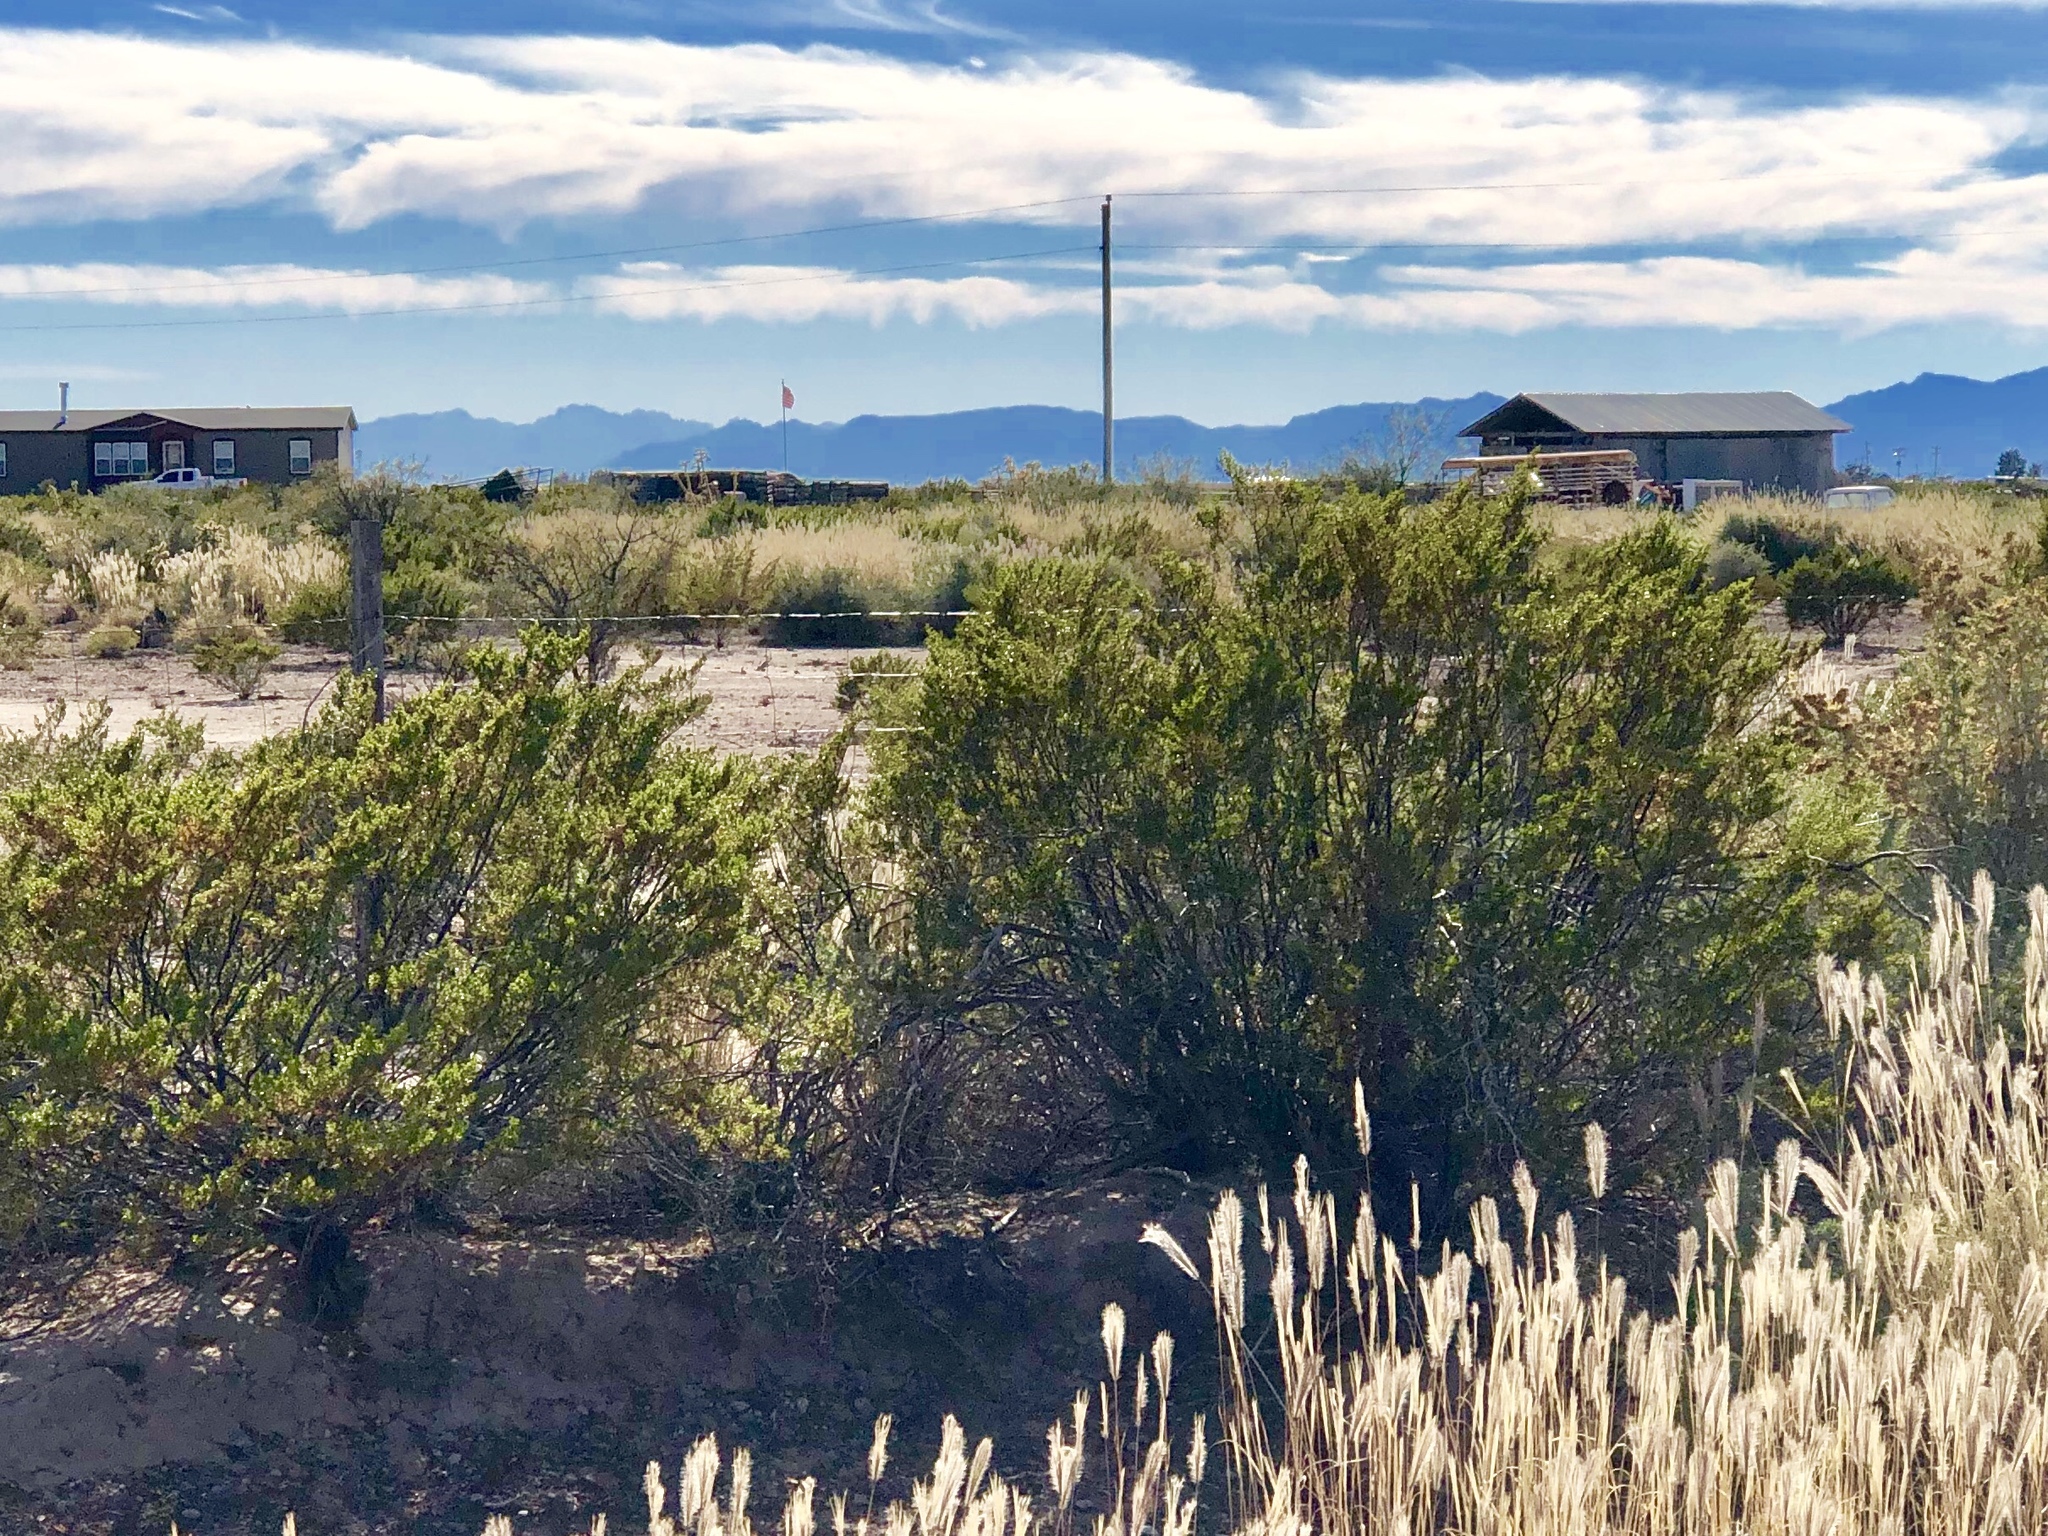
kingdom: Plantae
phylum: Tracheophyta
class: Magnoliopsida
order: Zygophyllales
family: Zygophyllaceae
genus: Larrea
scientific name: Larrea tridentata
